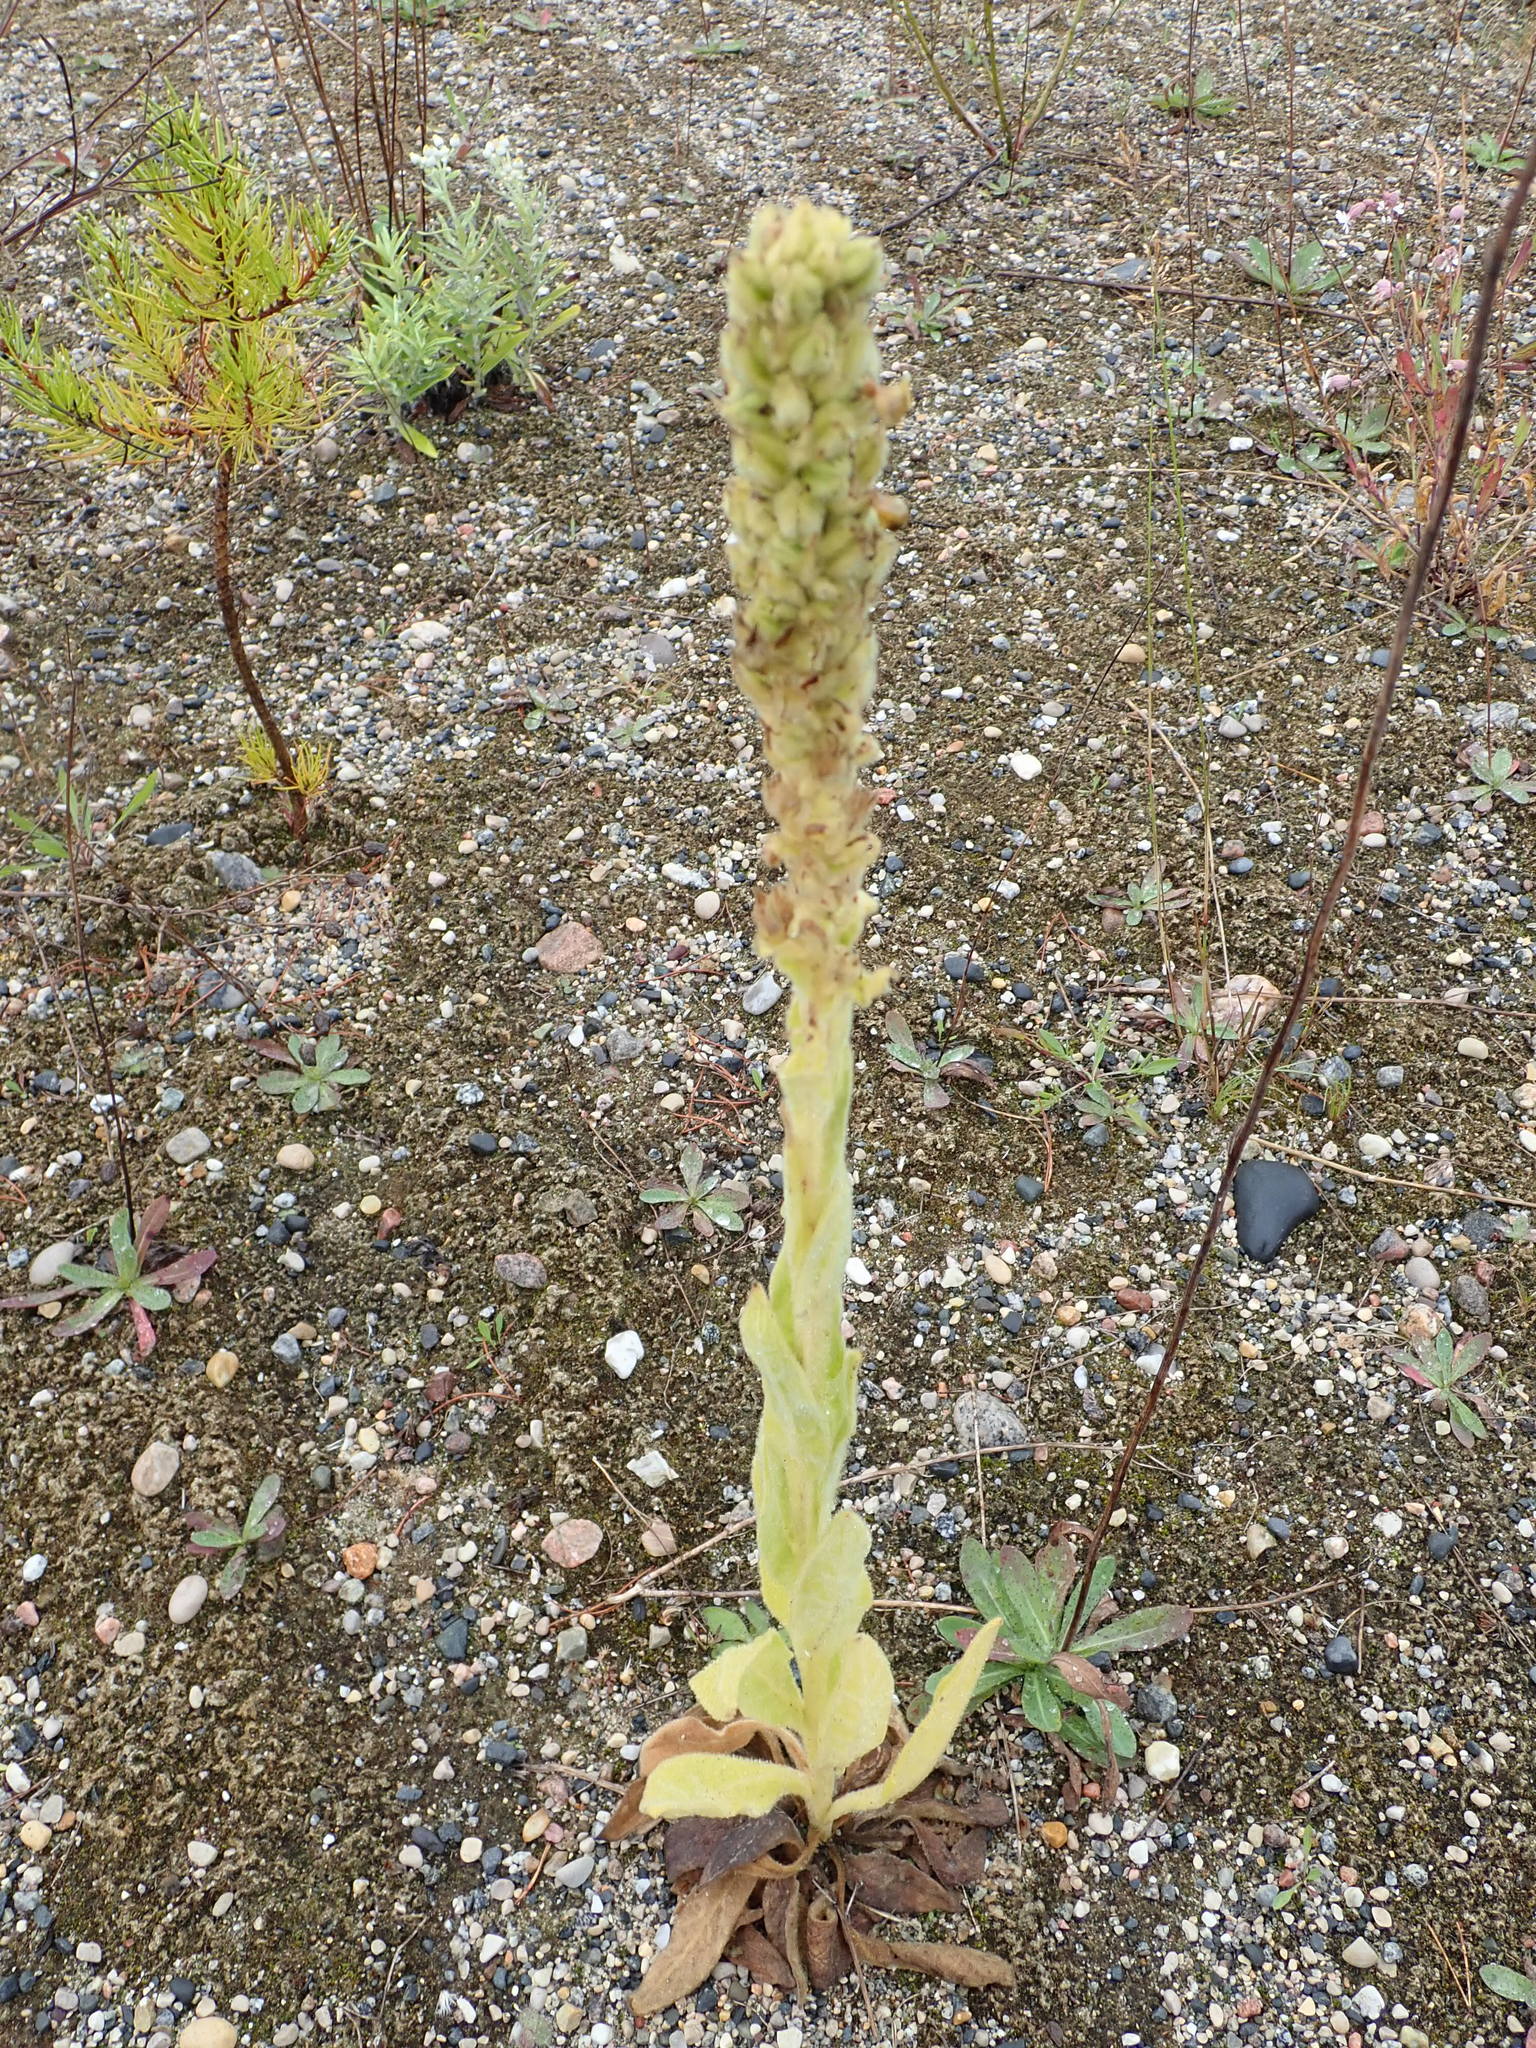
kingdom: Plantae
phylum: Tracheophyta
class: Magnoliopsida
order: Lamiales
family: Scrophulariaceae
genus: Verbascum
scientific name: Verbascum thapsus
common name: Common mullein
